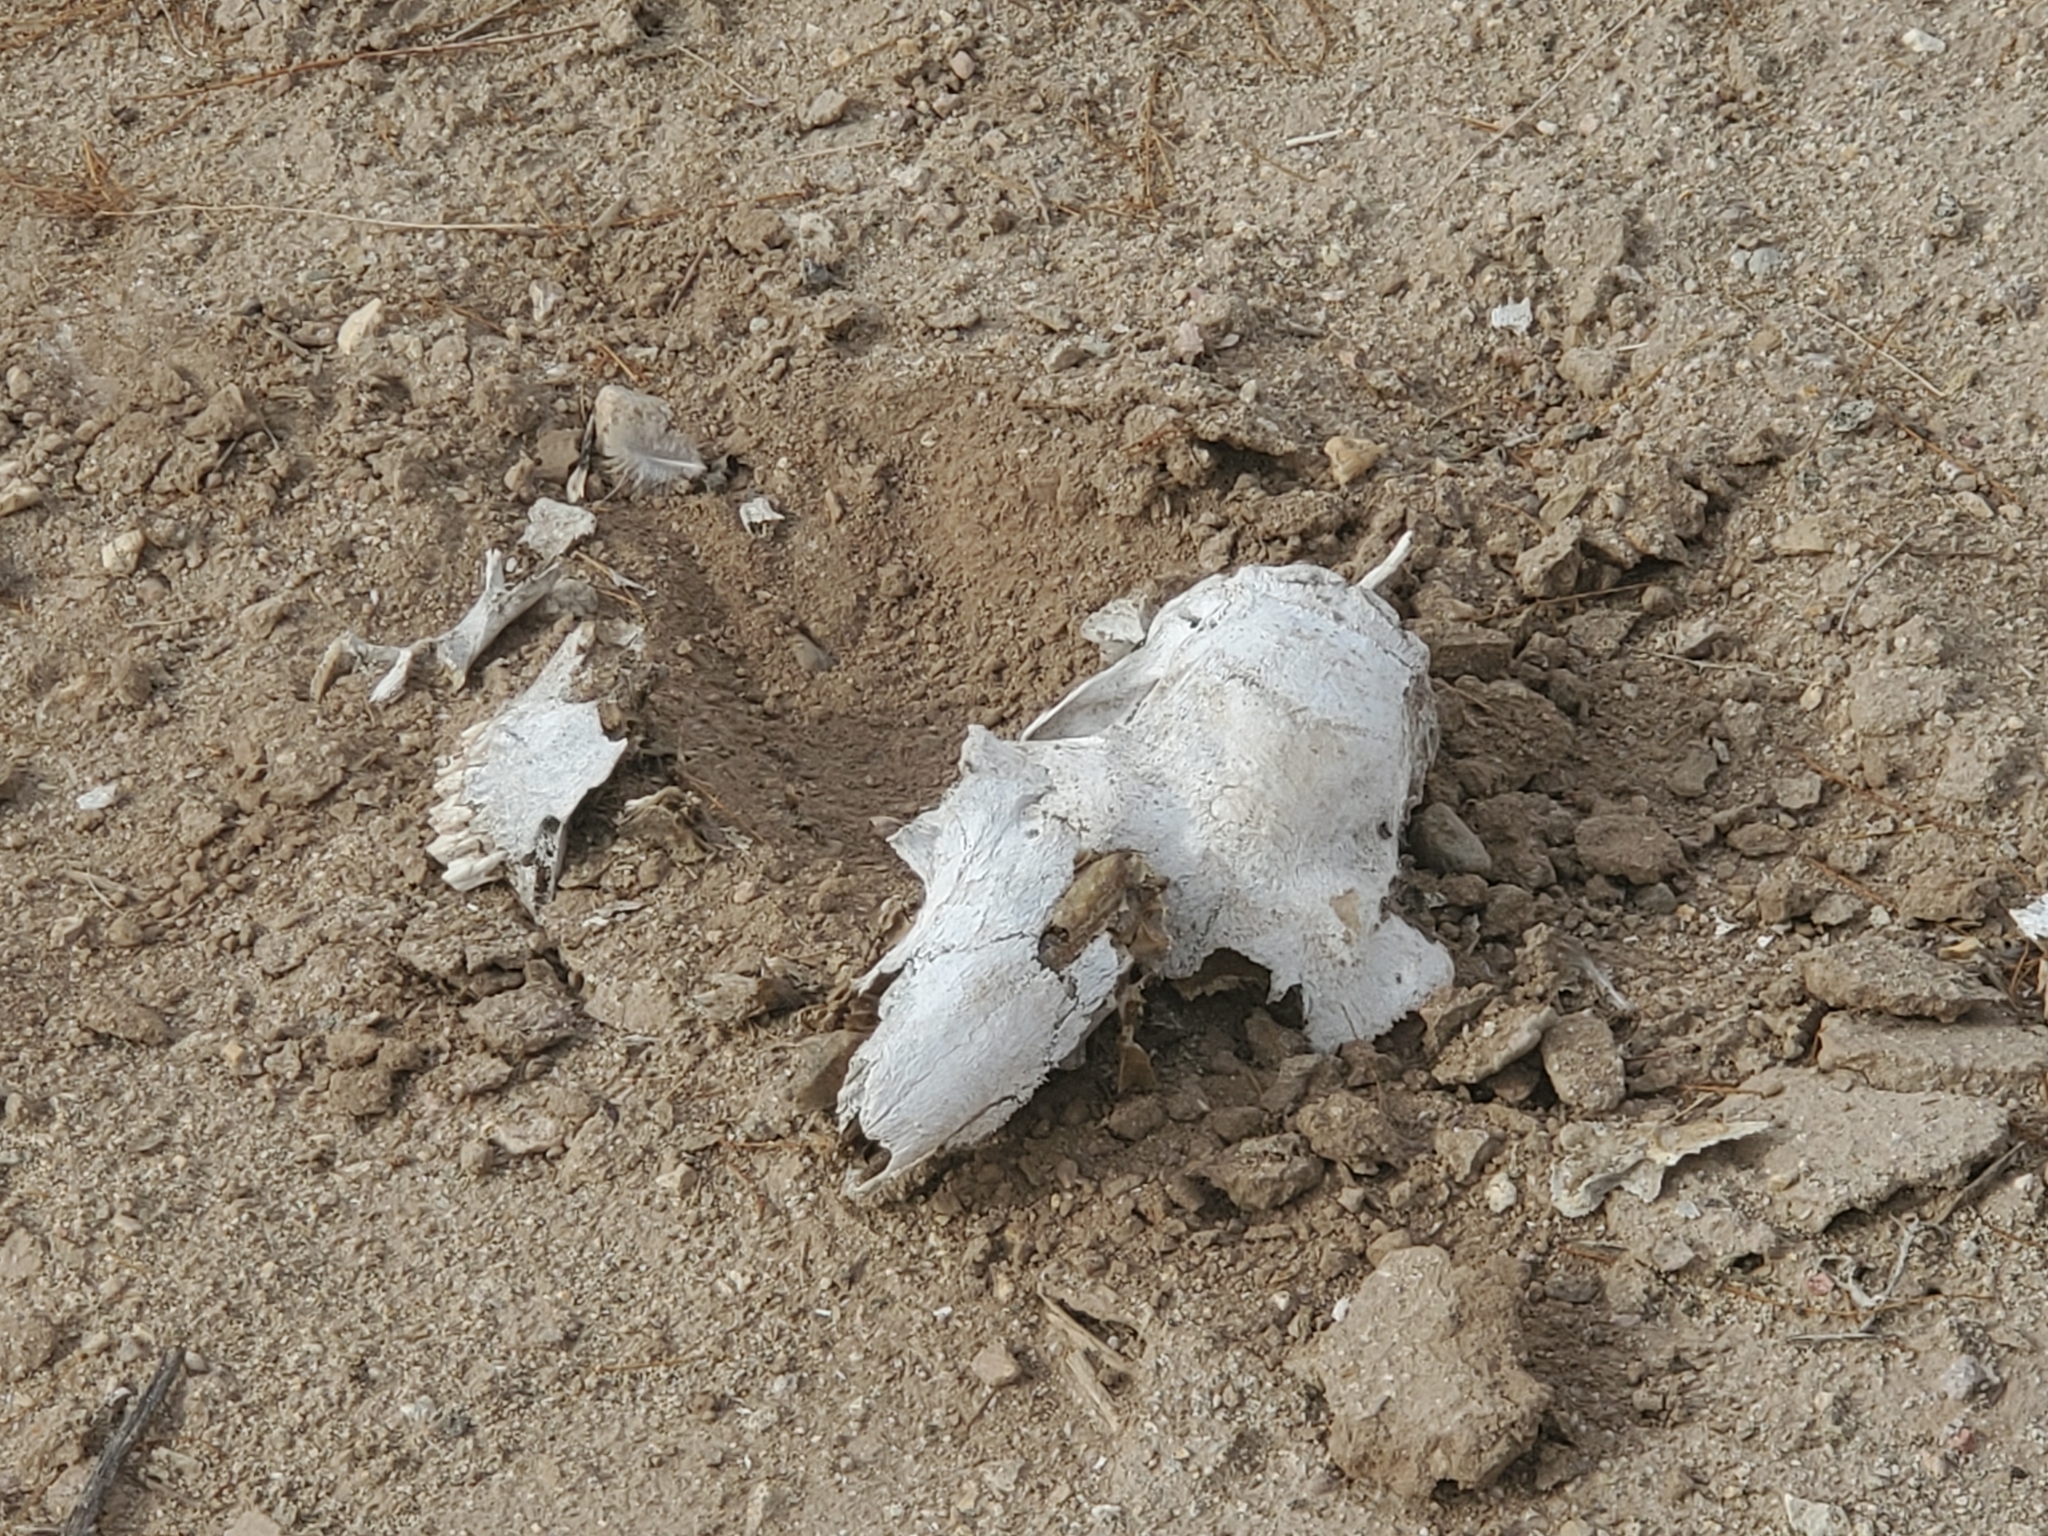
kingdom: Animalia
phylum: Chordata
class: Mammalia
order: Artiodactyla
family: Bovidae
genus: Ovis
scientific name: Ovis aries
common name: Domestic sheep
